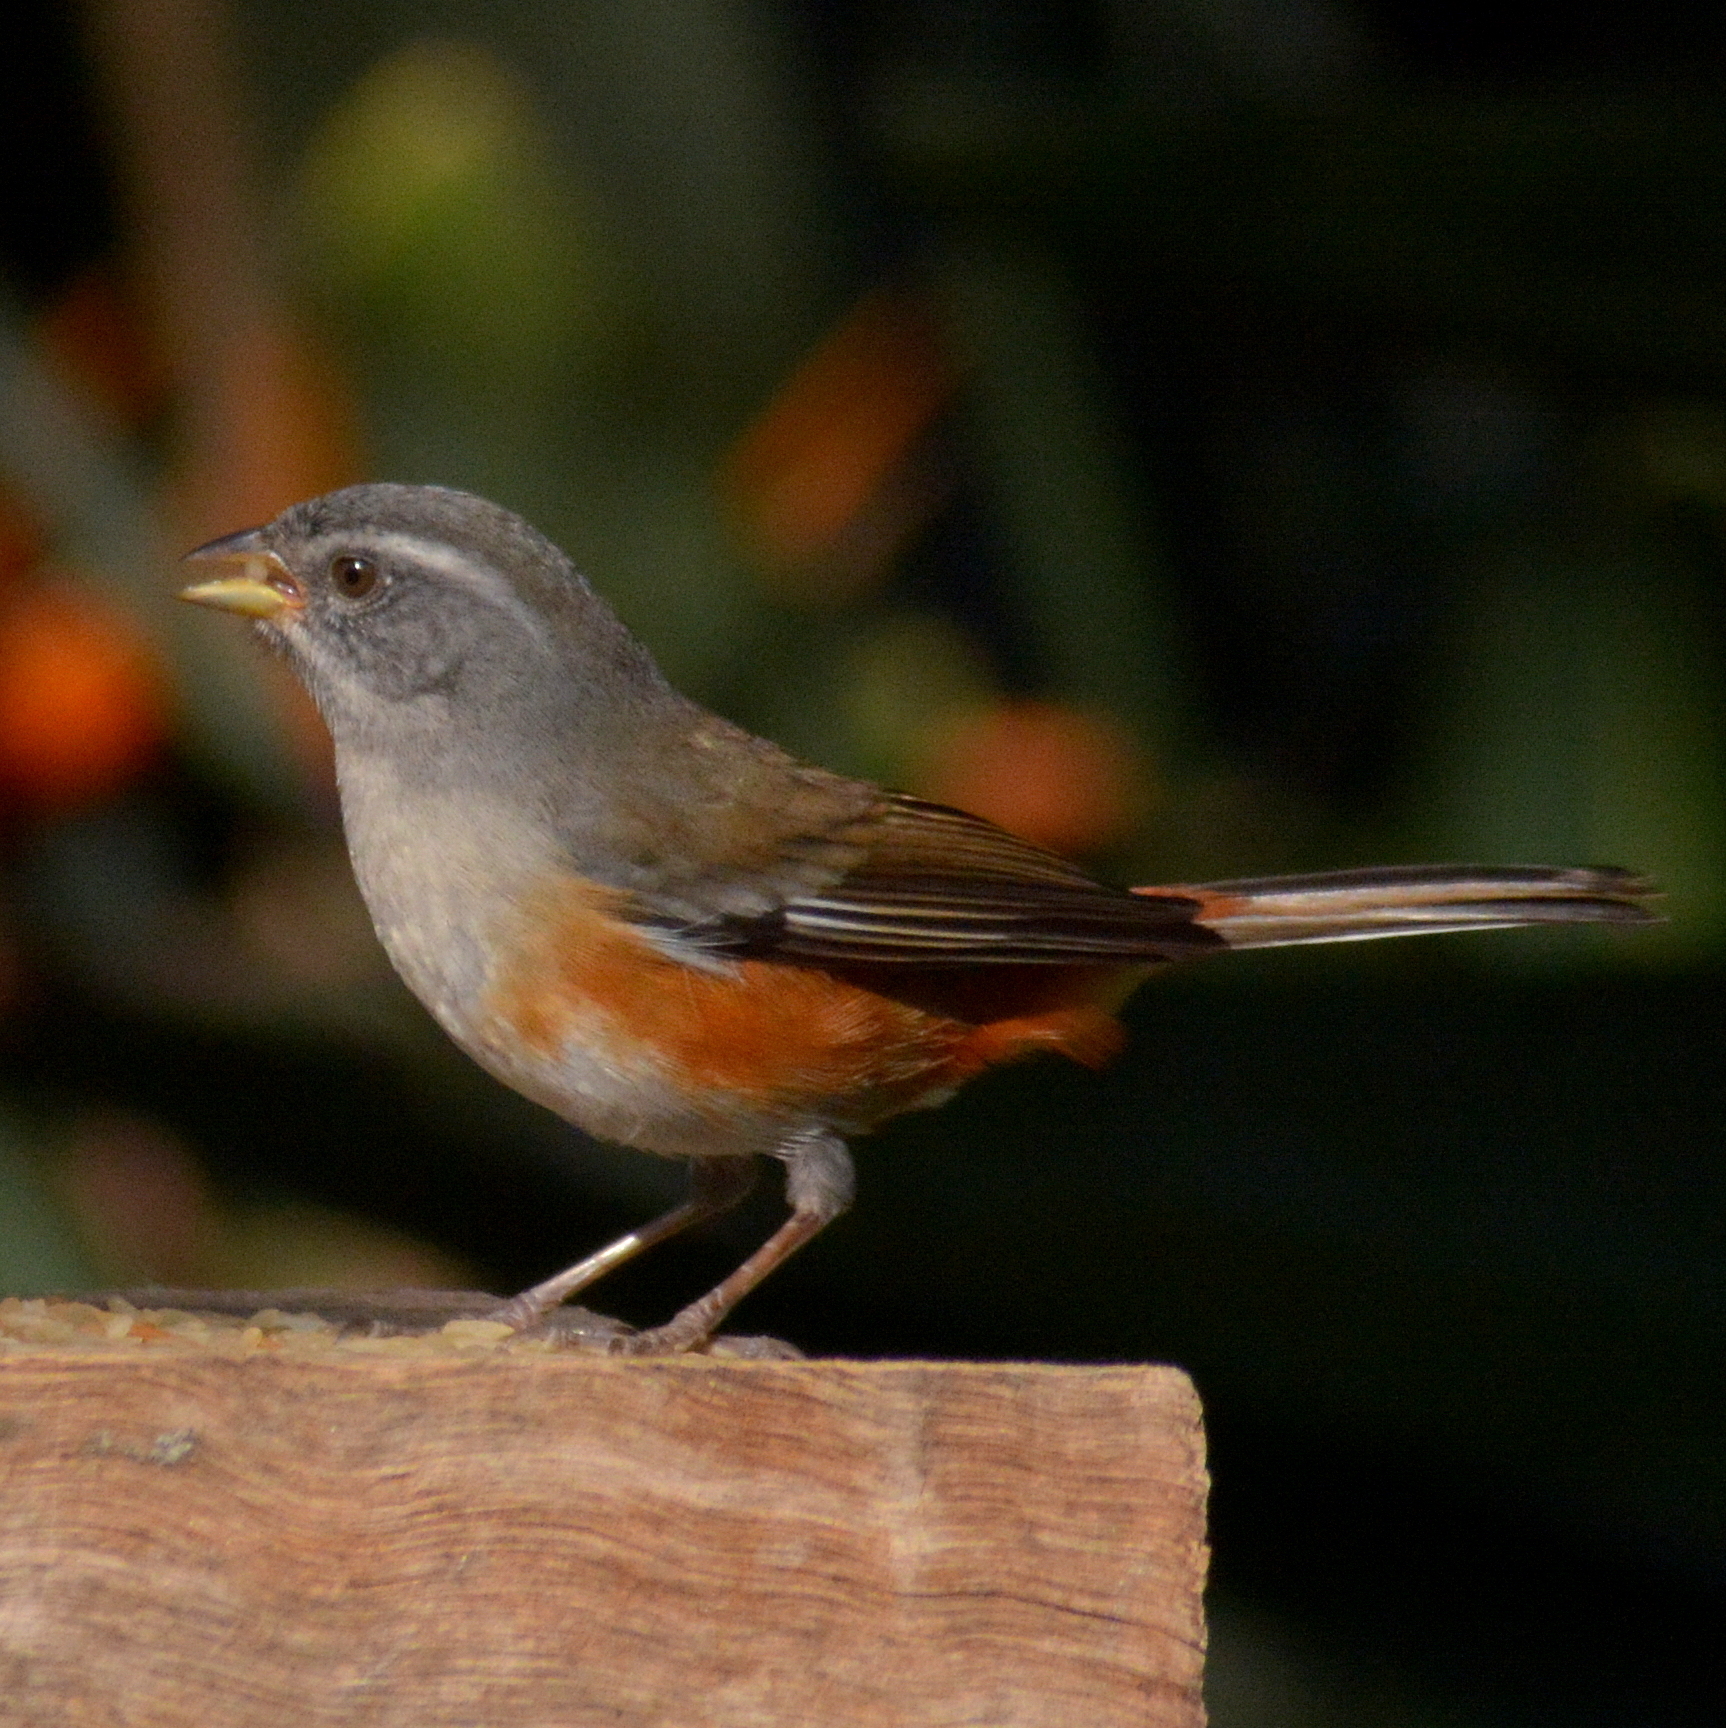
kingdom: Animalia
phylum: Chordata
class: Aves
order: Passeriformes
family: Thraupidae
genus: Microspingus
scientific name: Microspingus cabanisi
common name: Gray-throated warbling-finch
